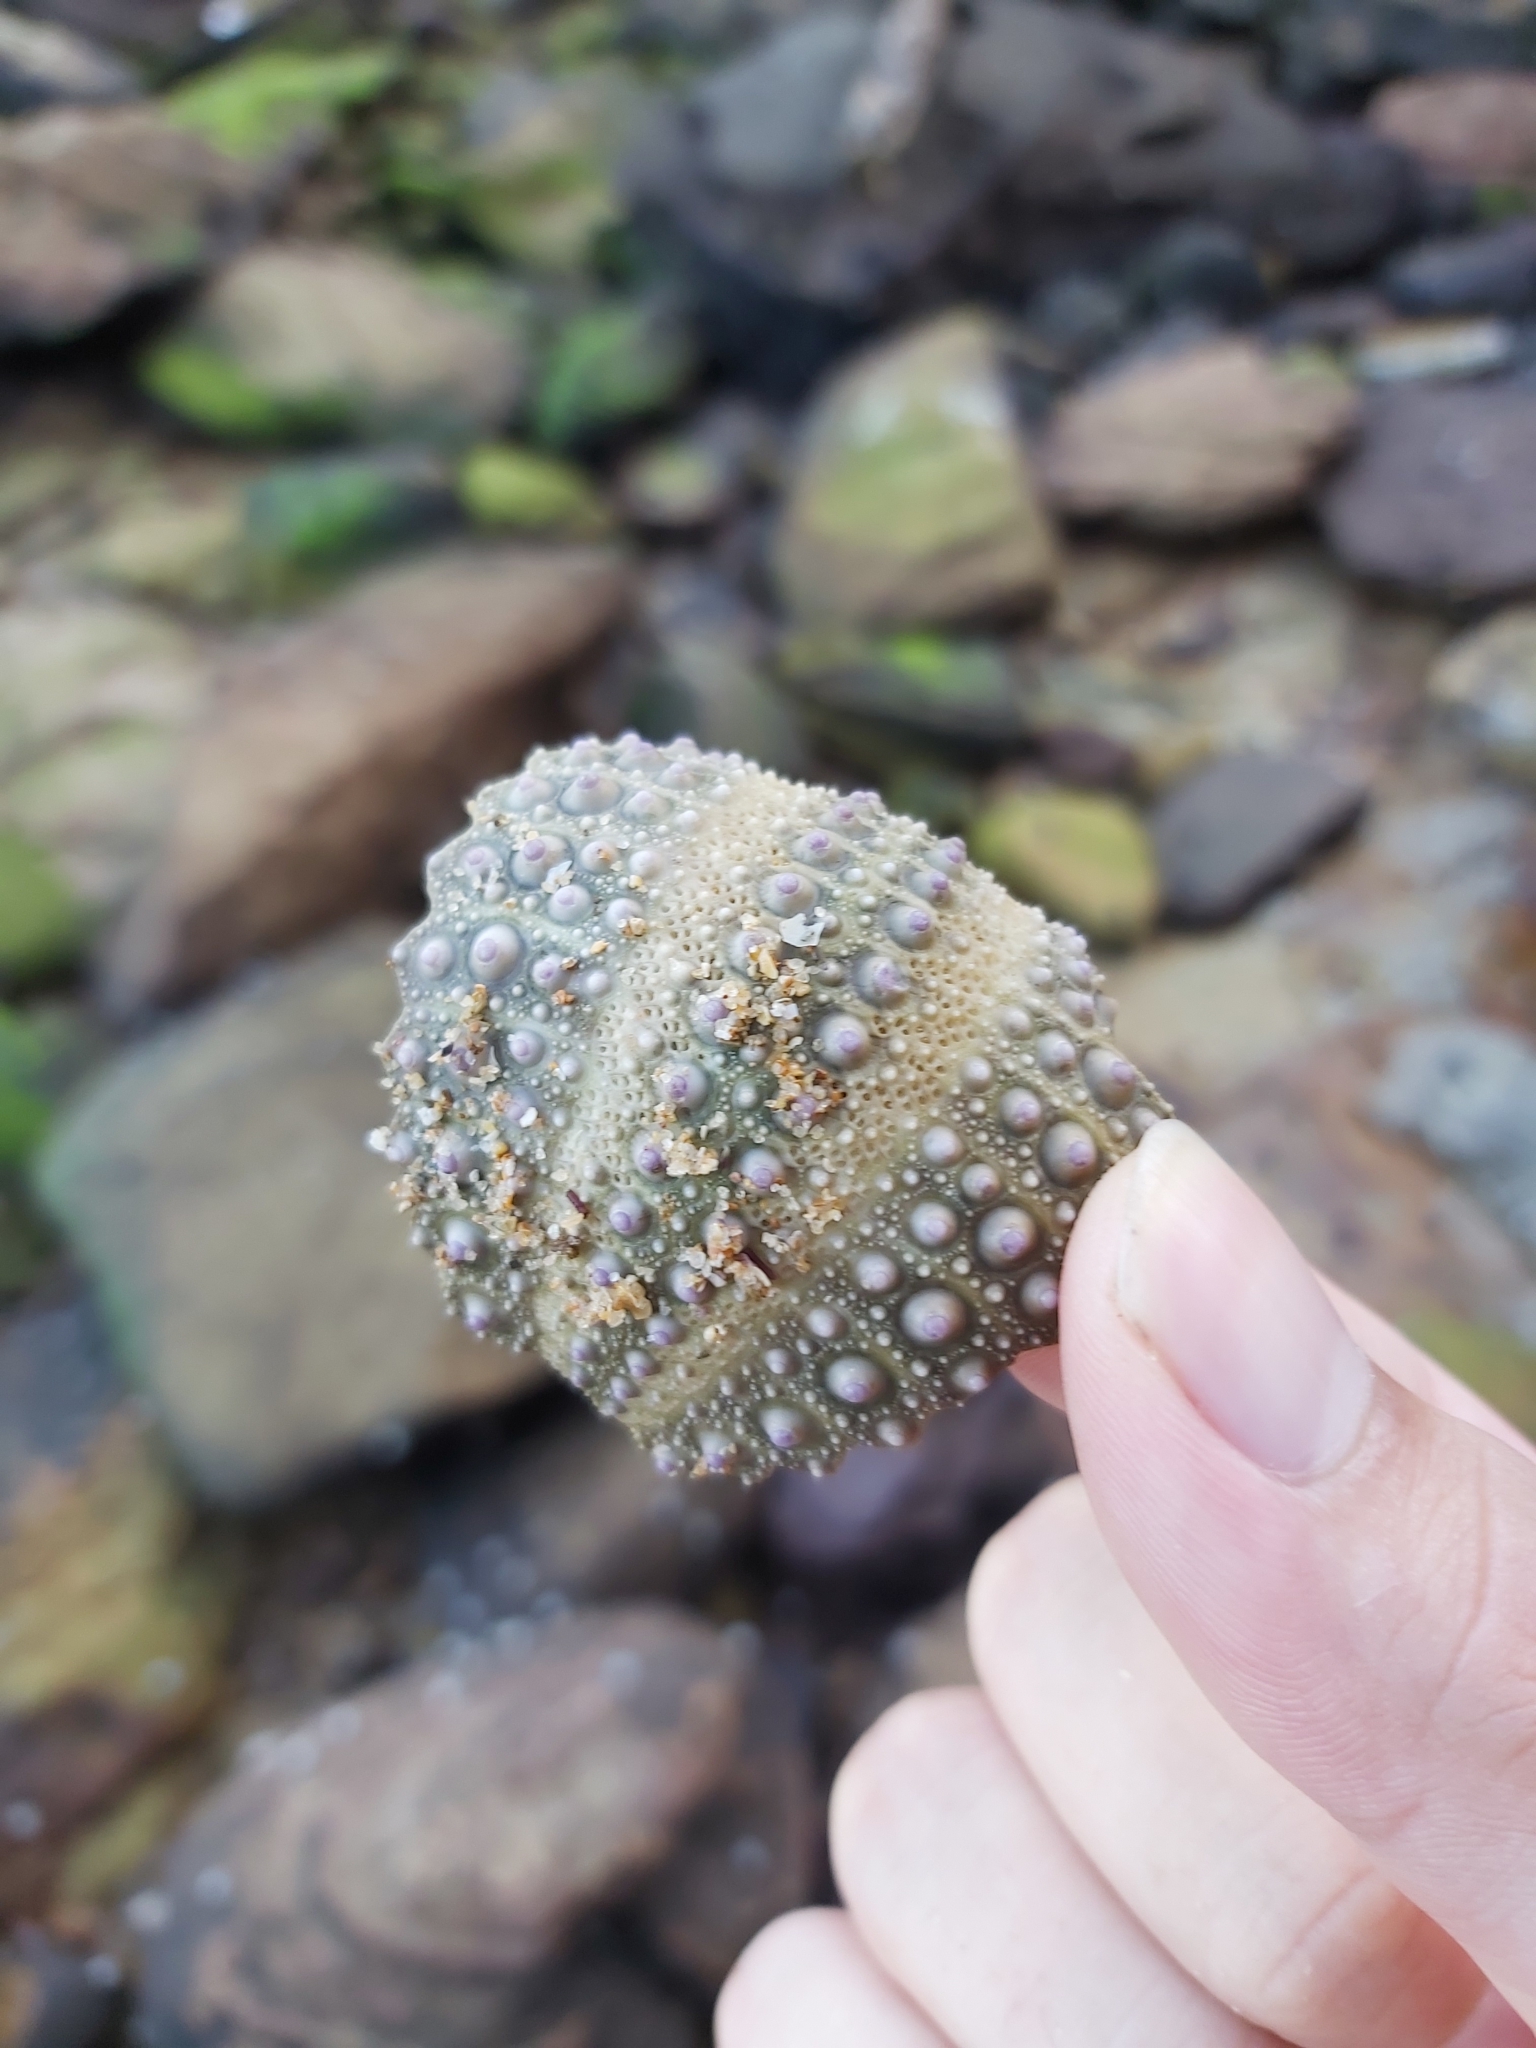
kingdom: Animalia
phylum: Echinodermata
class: Echinoidea
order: Camarodonta
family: Echinometridae
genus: Heliocidaris
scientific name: Heliocidaris erythrogramma
